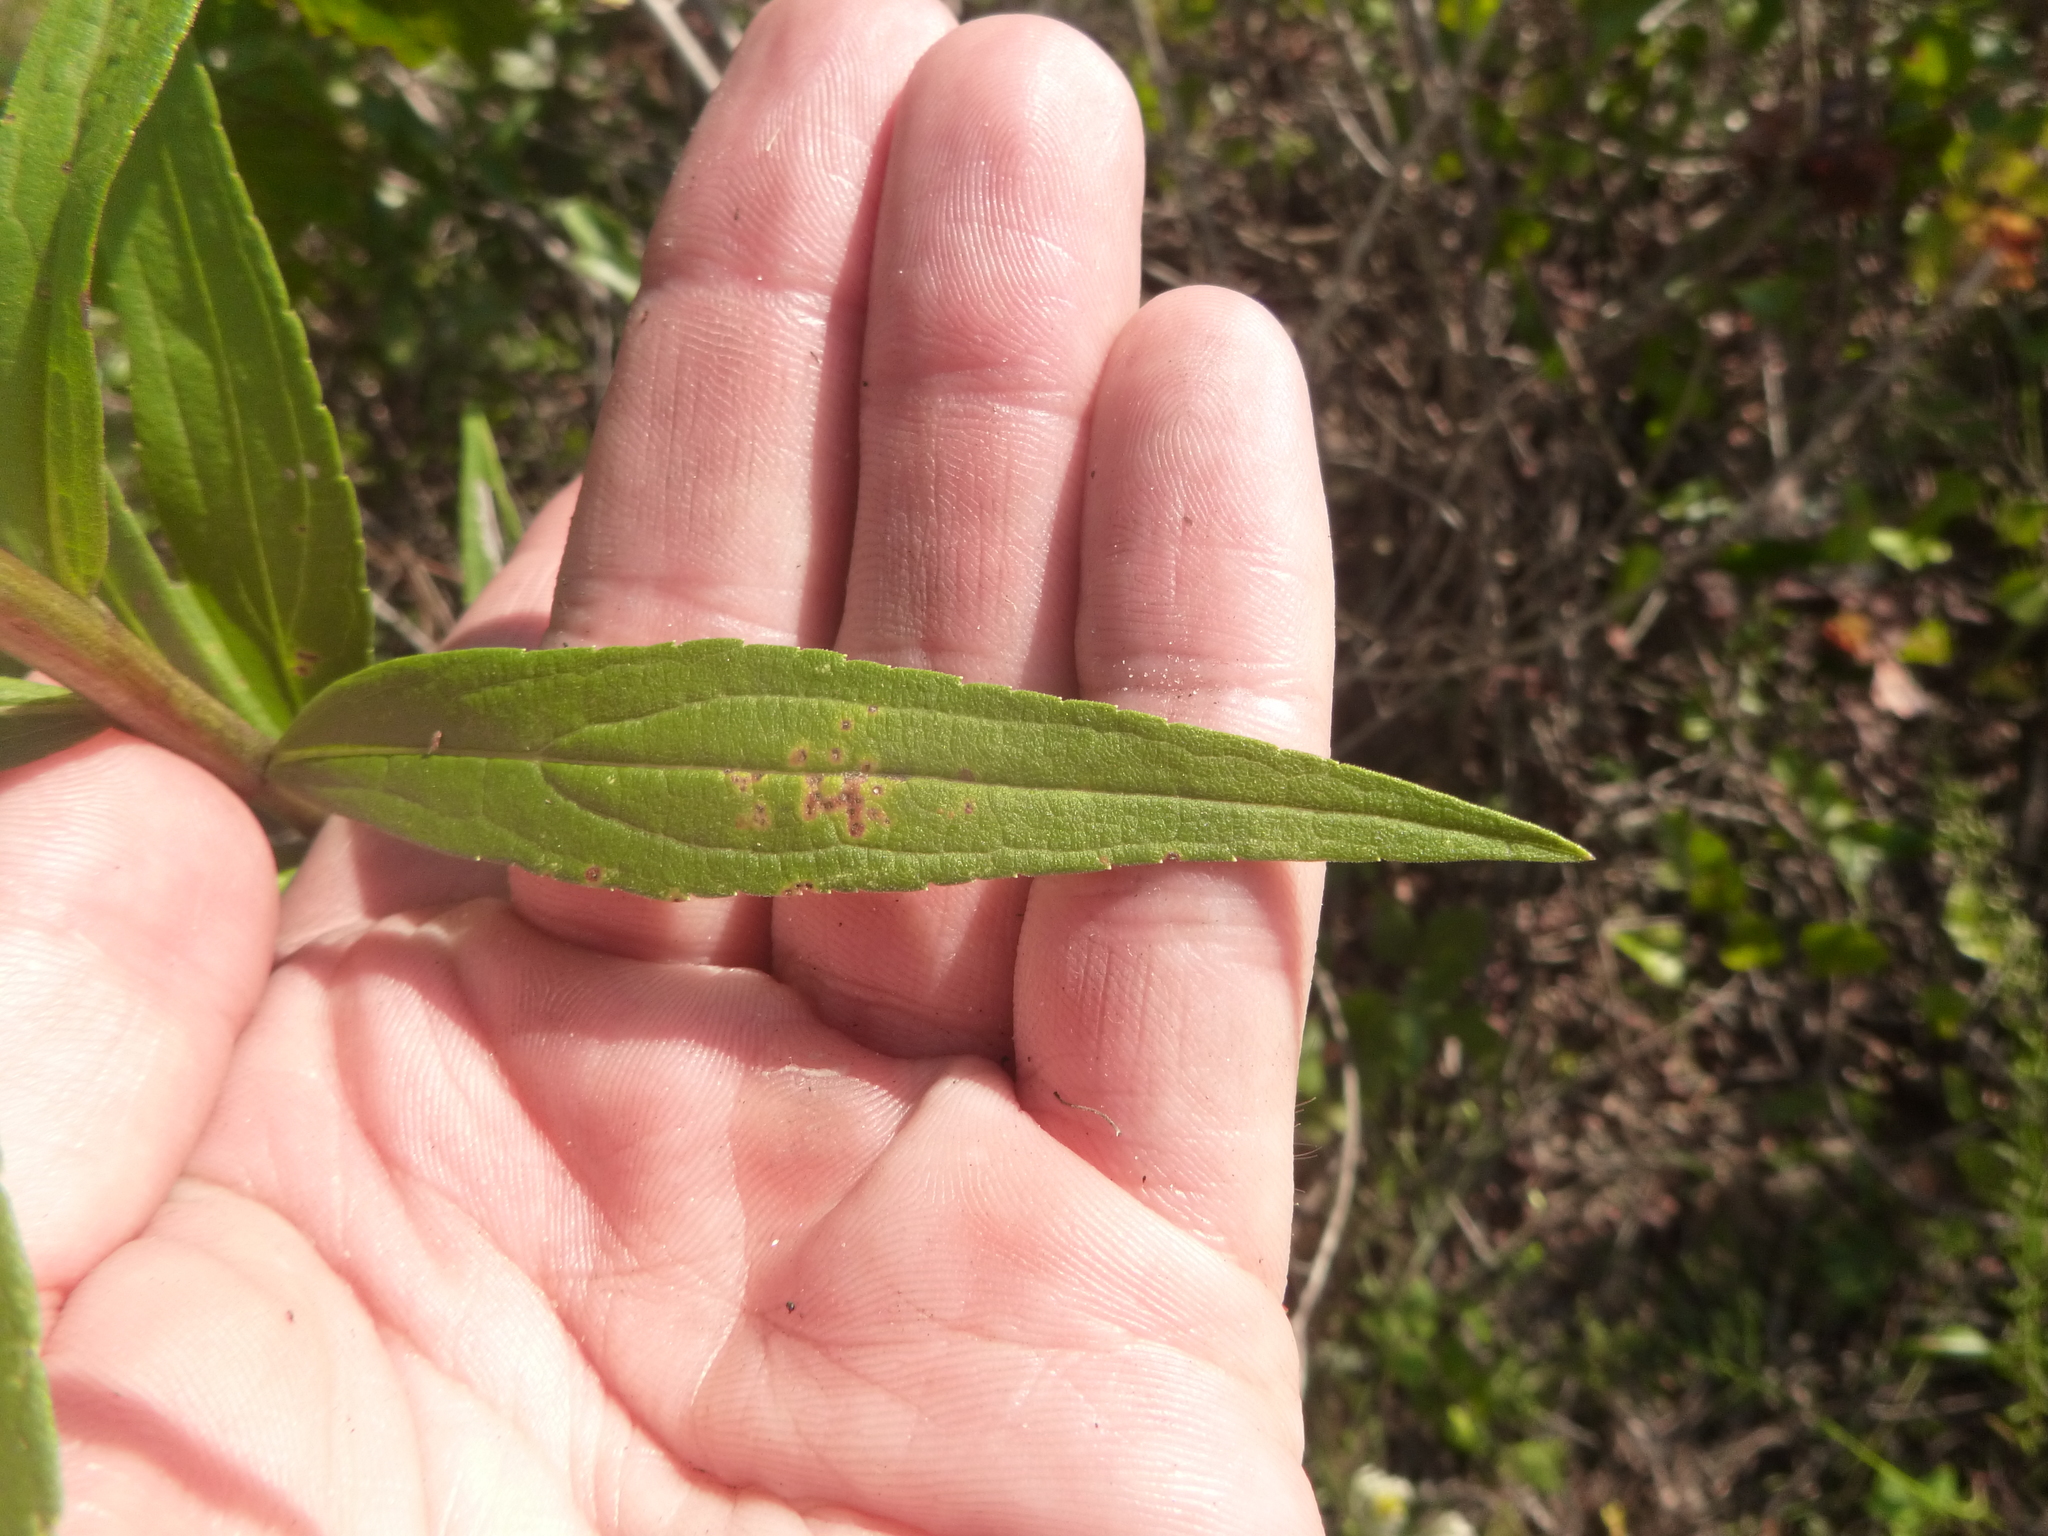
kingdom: Plantae
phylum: Tracheophyta
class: Magnoliopsida
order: Asterales
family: Asteraceae
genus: Solidago
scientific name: Solidago altissima
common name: Late goldenrod
